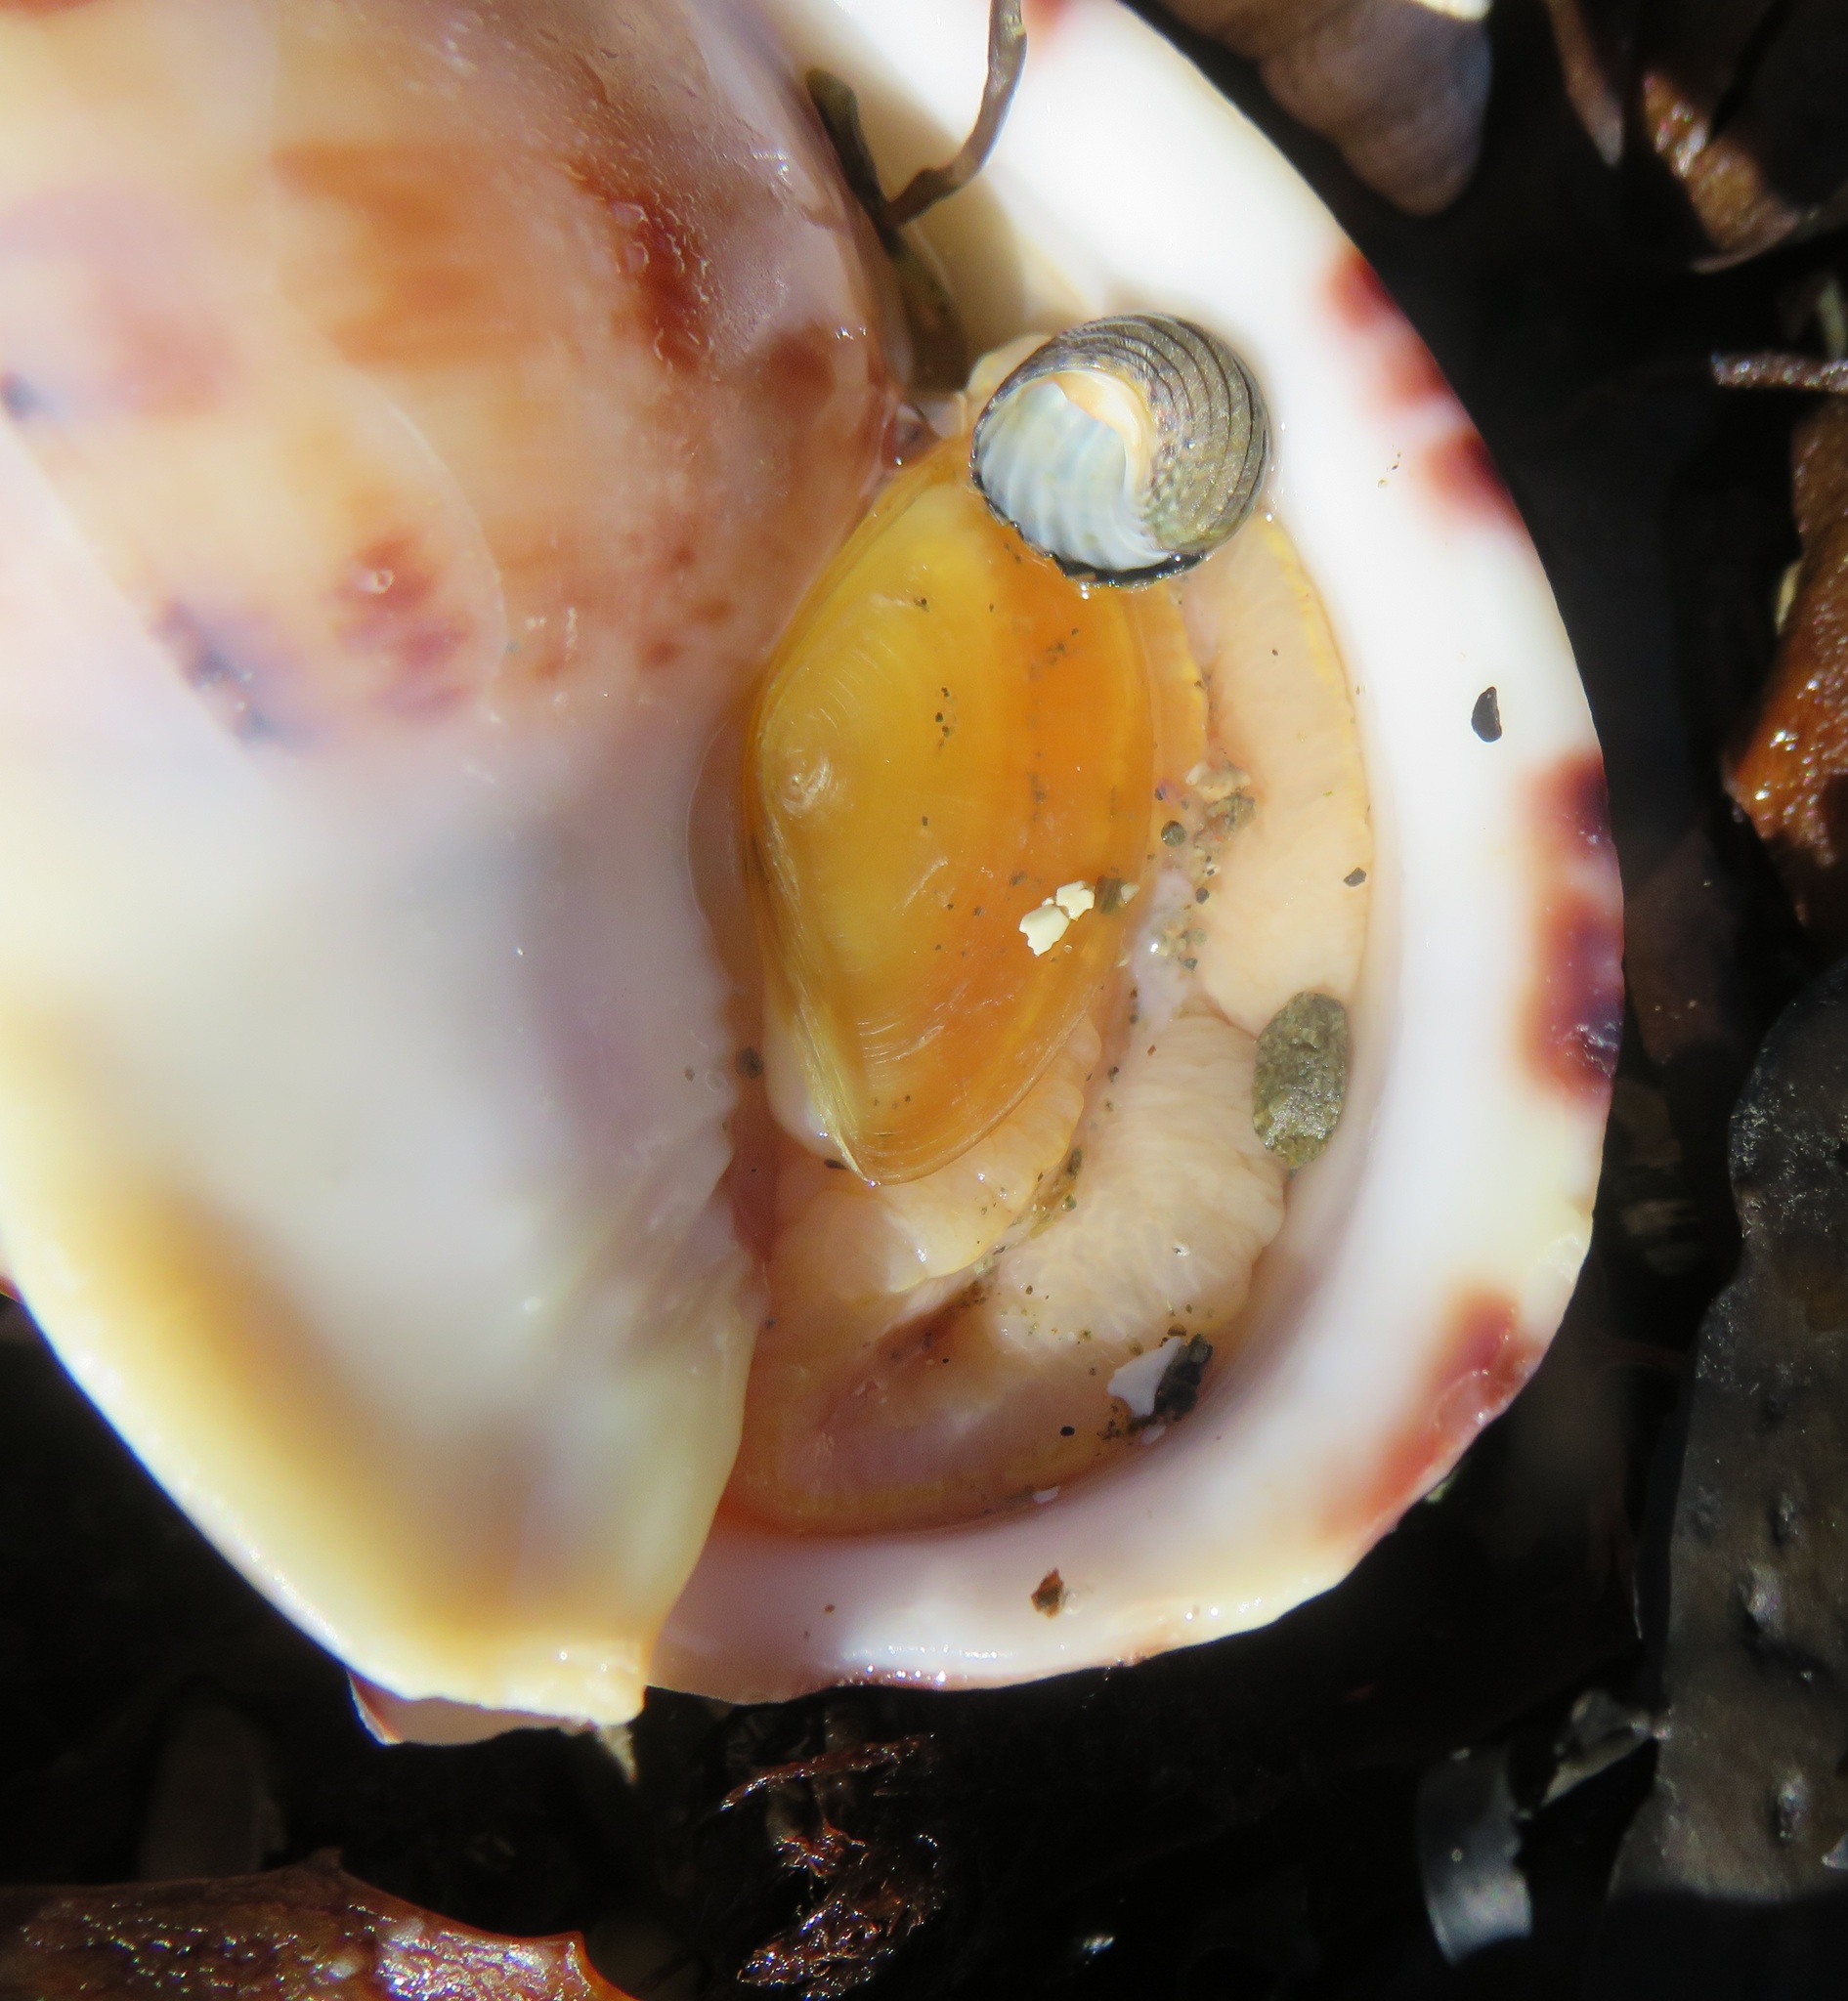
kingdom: Animalia
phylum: Mollusca
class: Gastropoda
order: Littorinimorpha
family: Cassidae
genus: Semicassis
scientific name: Semicassis pyrum
